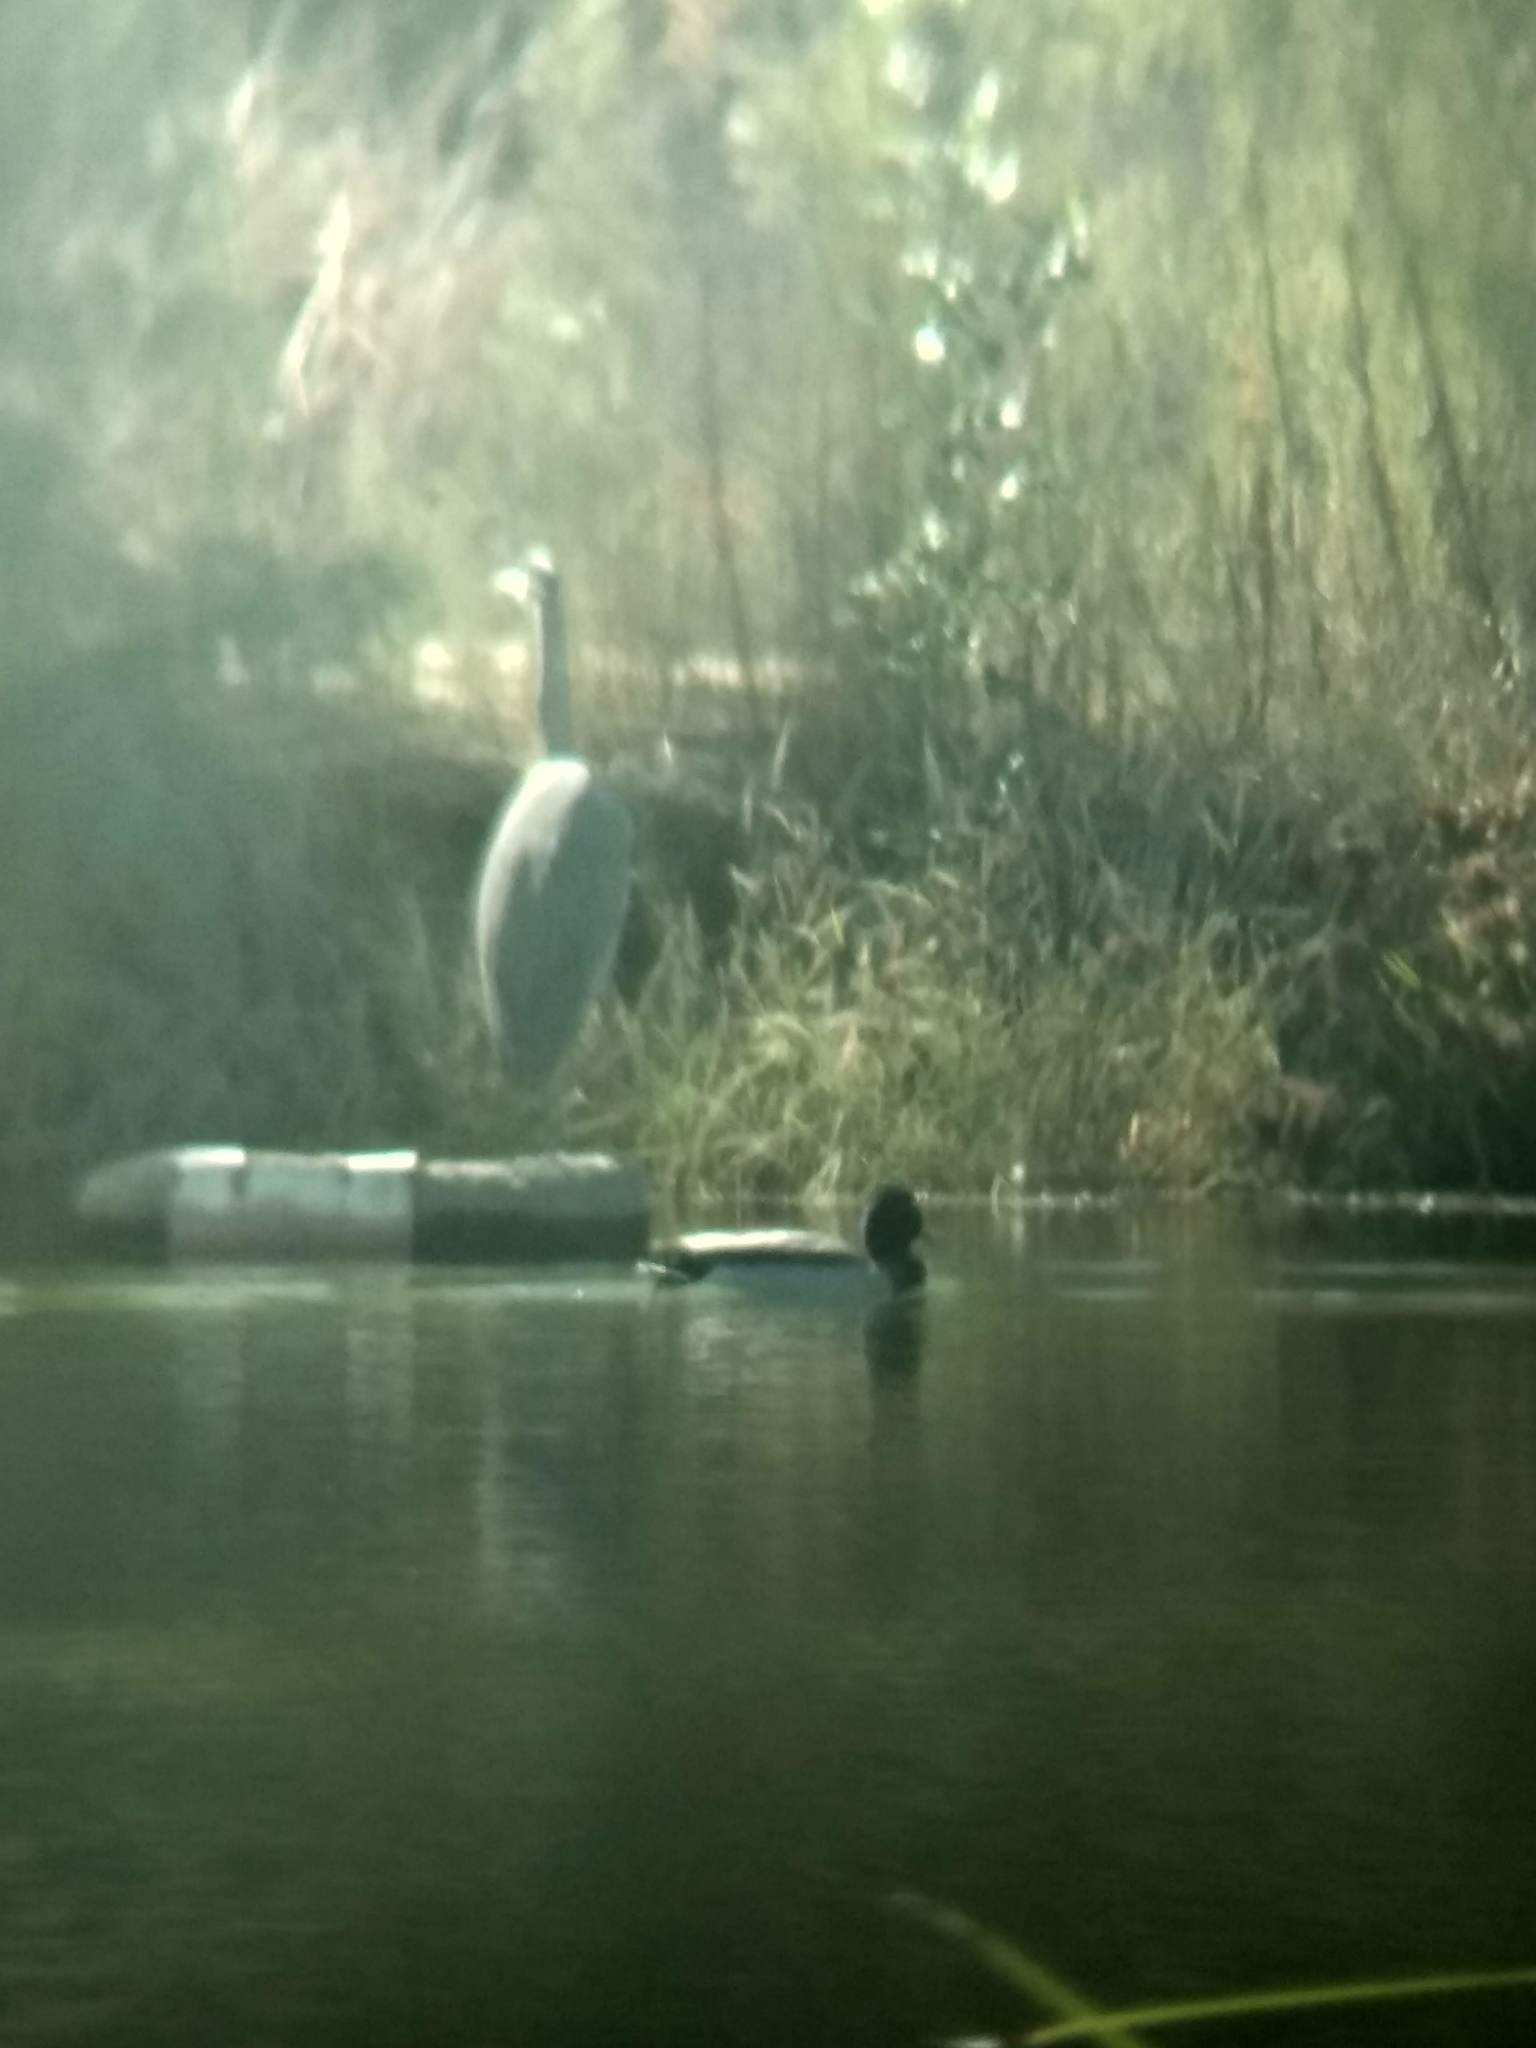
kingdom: Animalia
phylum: Chordata
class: Aves
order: Anseriformes
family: Anatidae
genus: Anas
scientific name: Anas platyrhynchos
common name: Mallard
